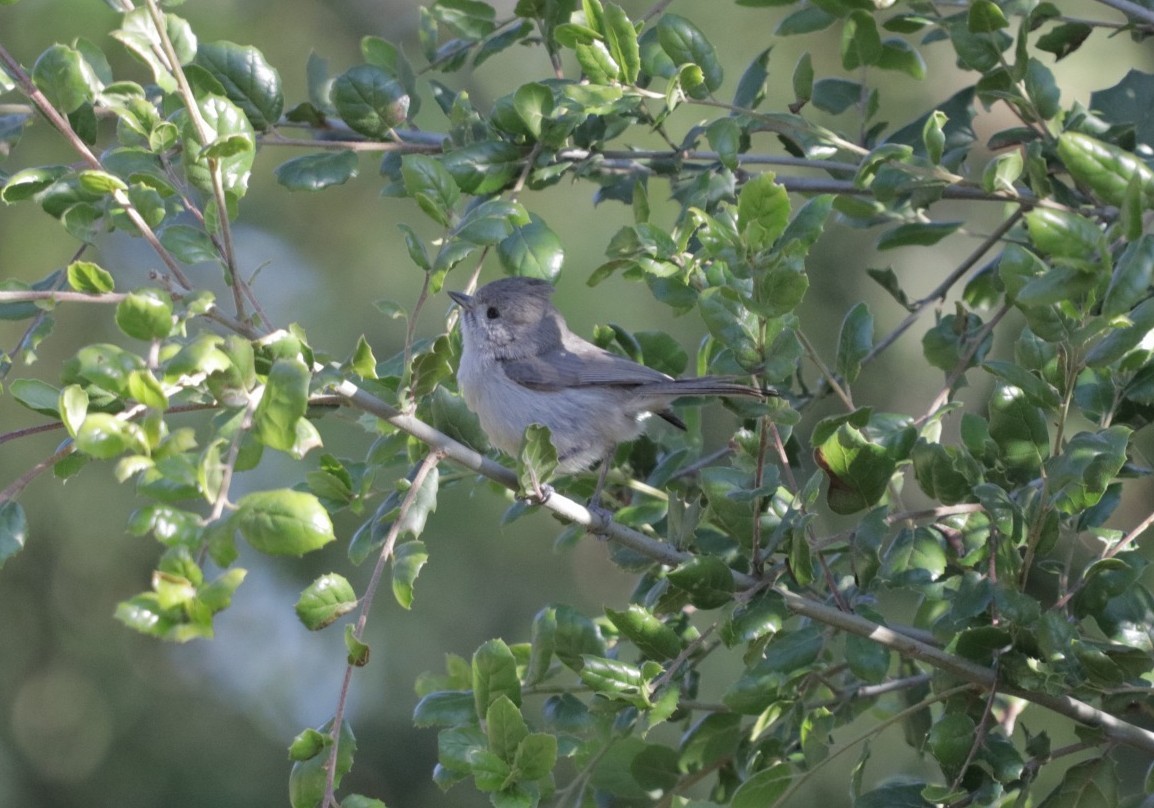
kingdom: Animalia
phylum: Chordata
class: Aves
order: Passeriformes
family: Paridae
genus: Baeolophus
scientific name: Baeolophus inornatus
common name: Oak titmouse
